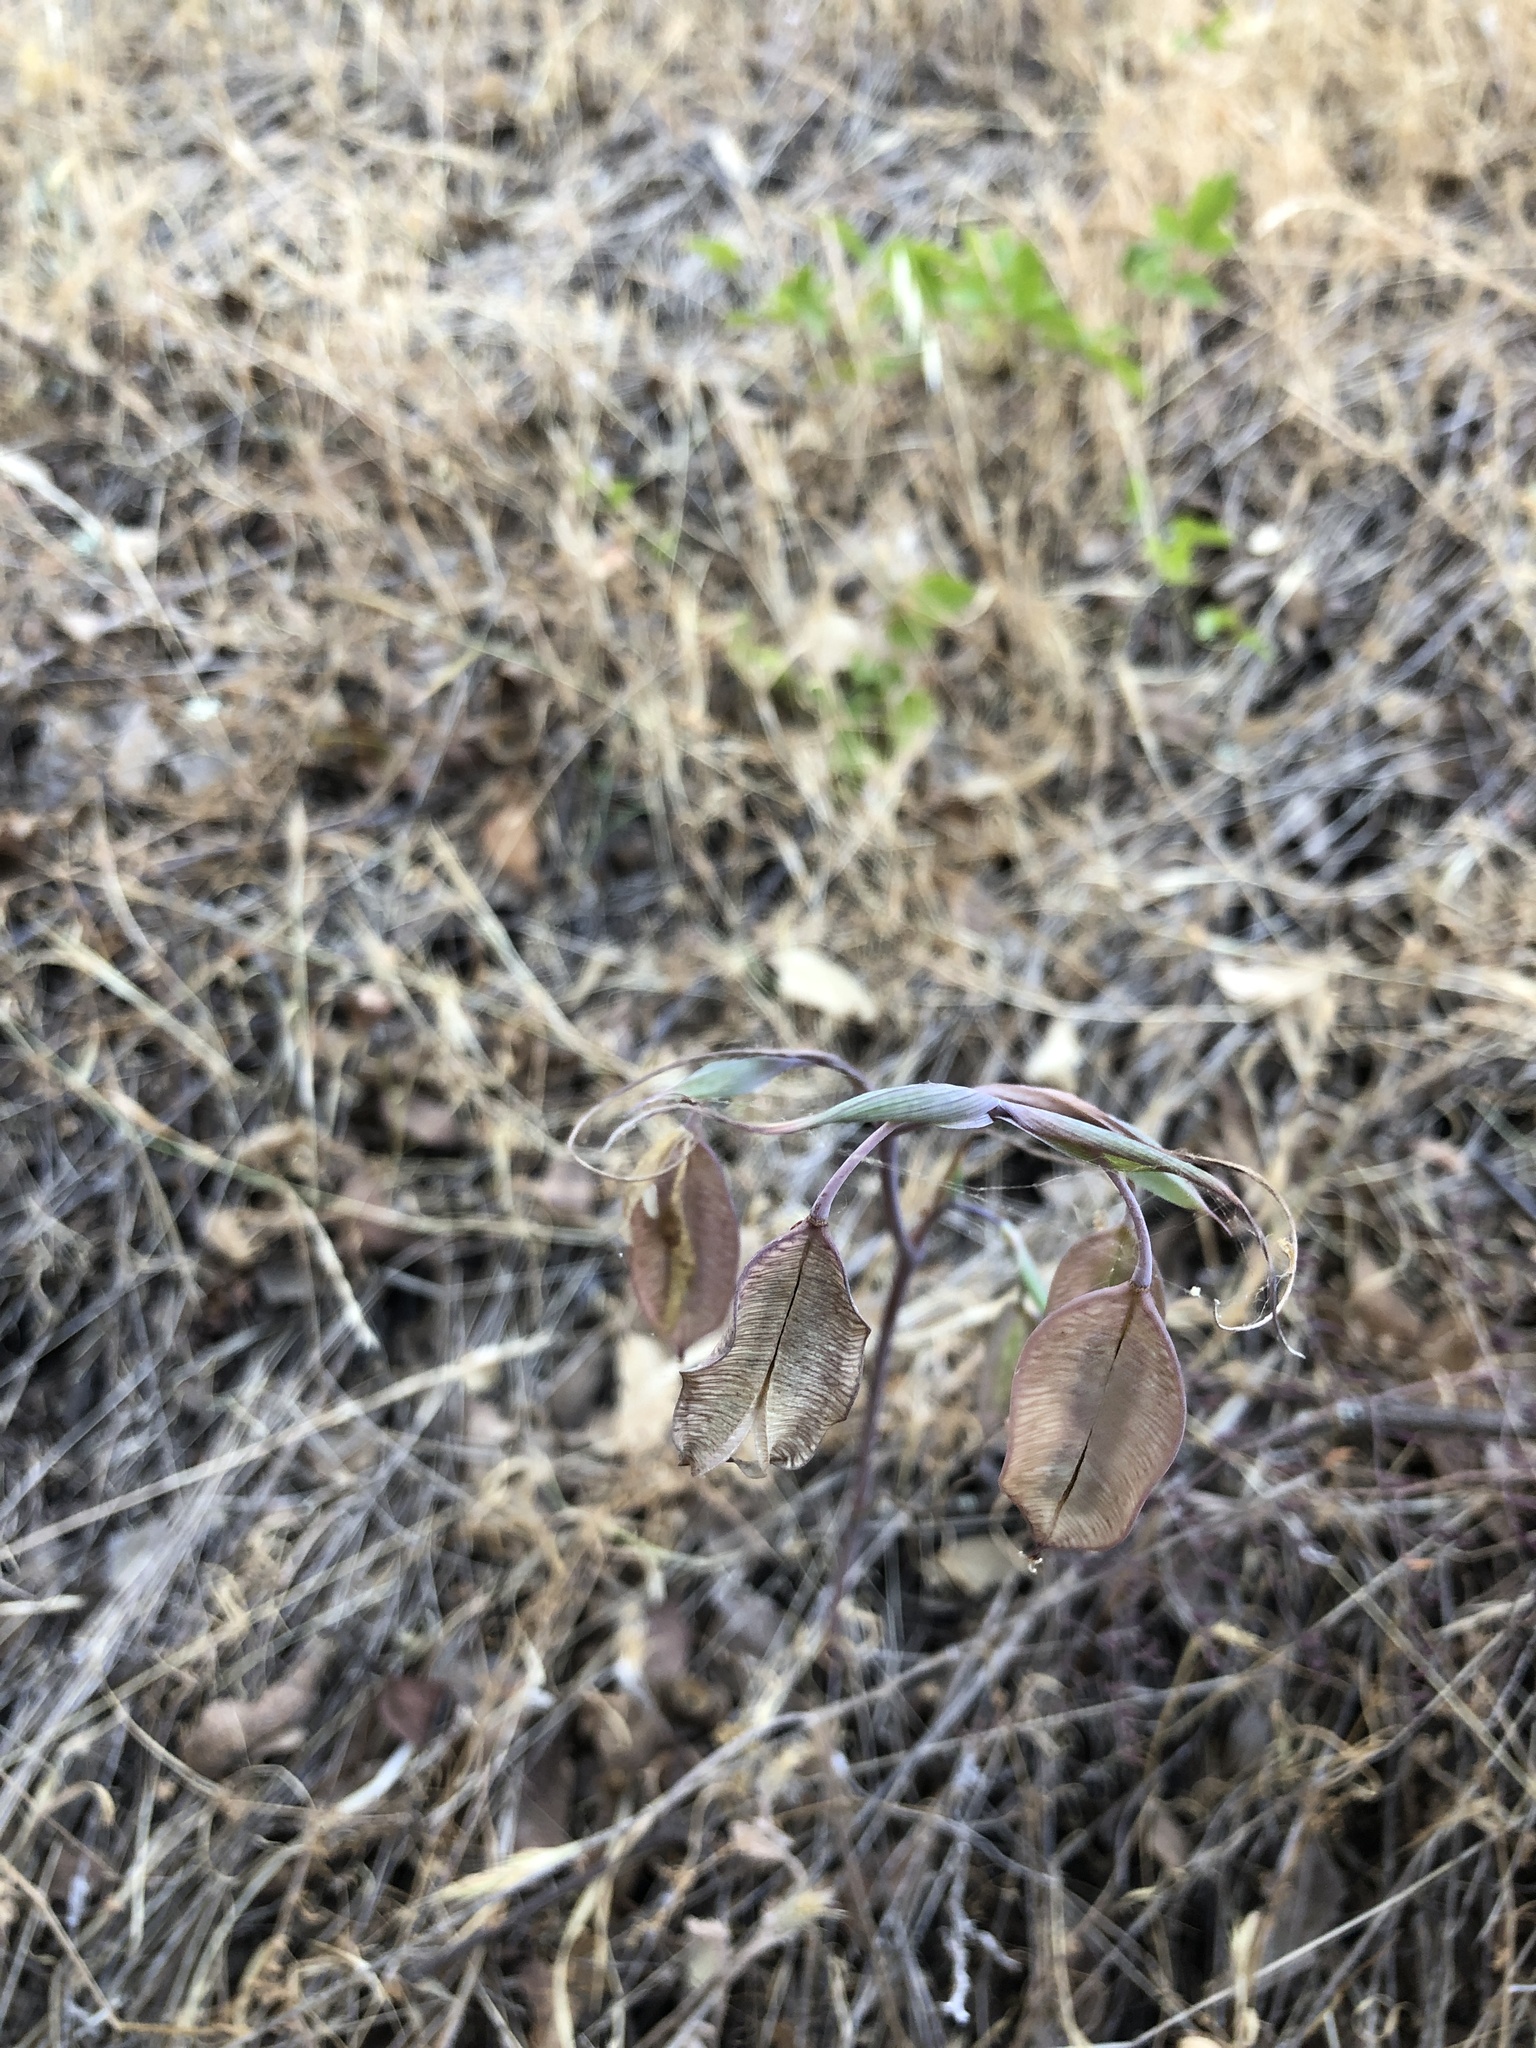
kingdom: Plantae
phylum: Tracheophyta
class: Liliopsida
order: Liliales
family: Liliaceae
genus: Calochortus
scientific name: Calochortus albus
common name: Fairy-lantern
